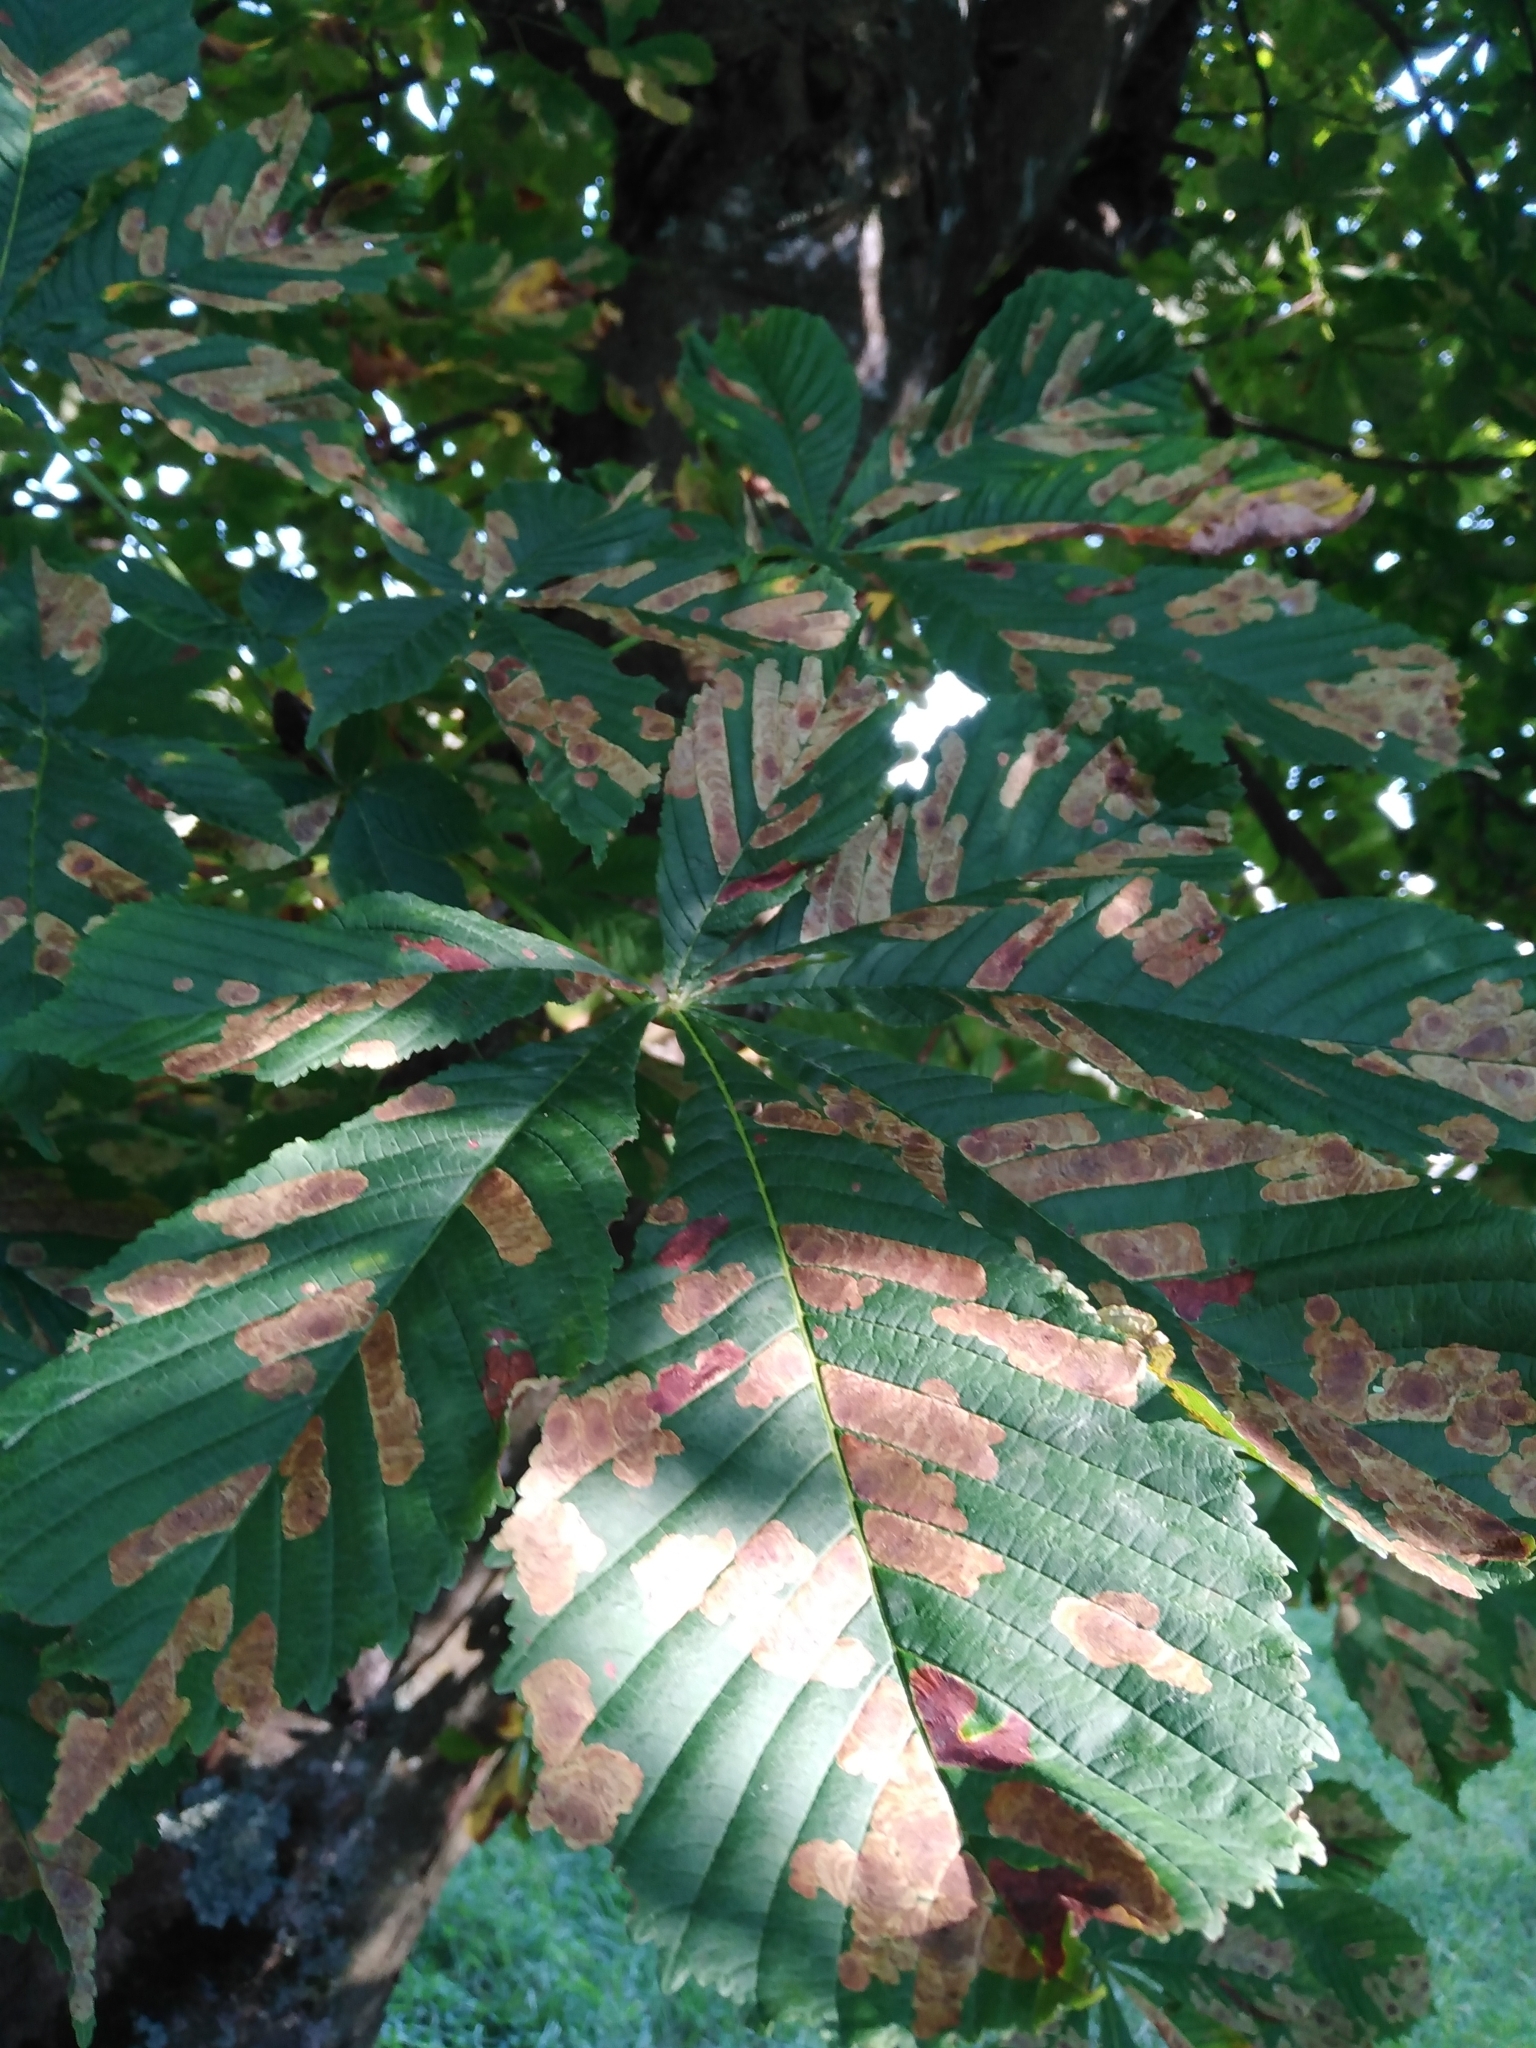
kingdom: Plantae
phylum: Tracheophyta
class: Magnoliopsida
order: Sapindales
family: Sapindaceae
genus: Aesculus
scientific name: Aesculus hippocastanum
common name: Horse-chestnut
